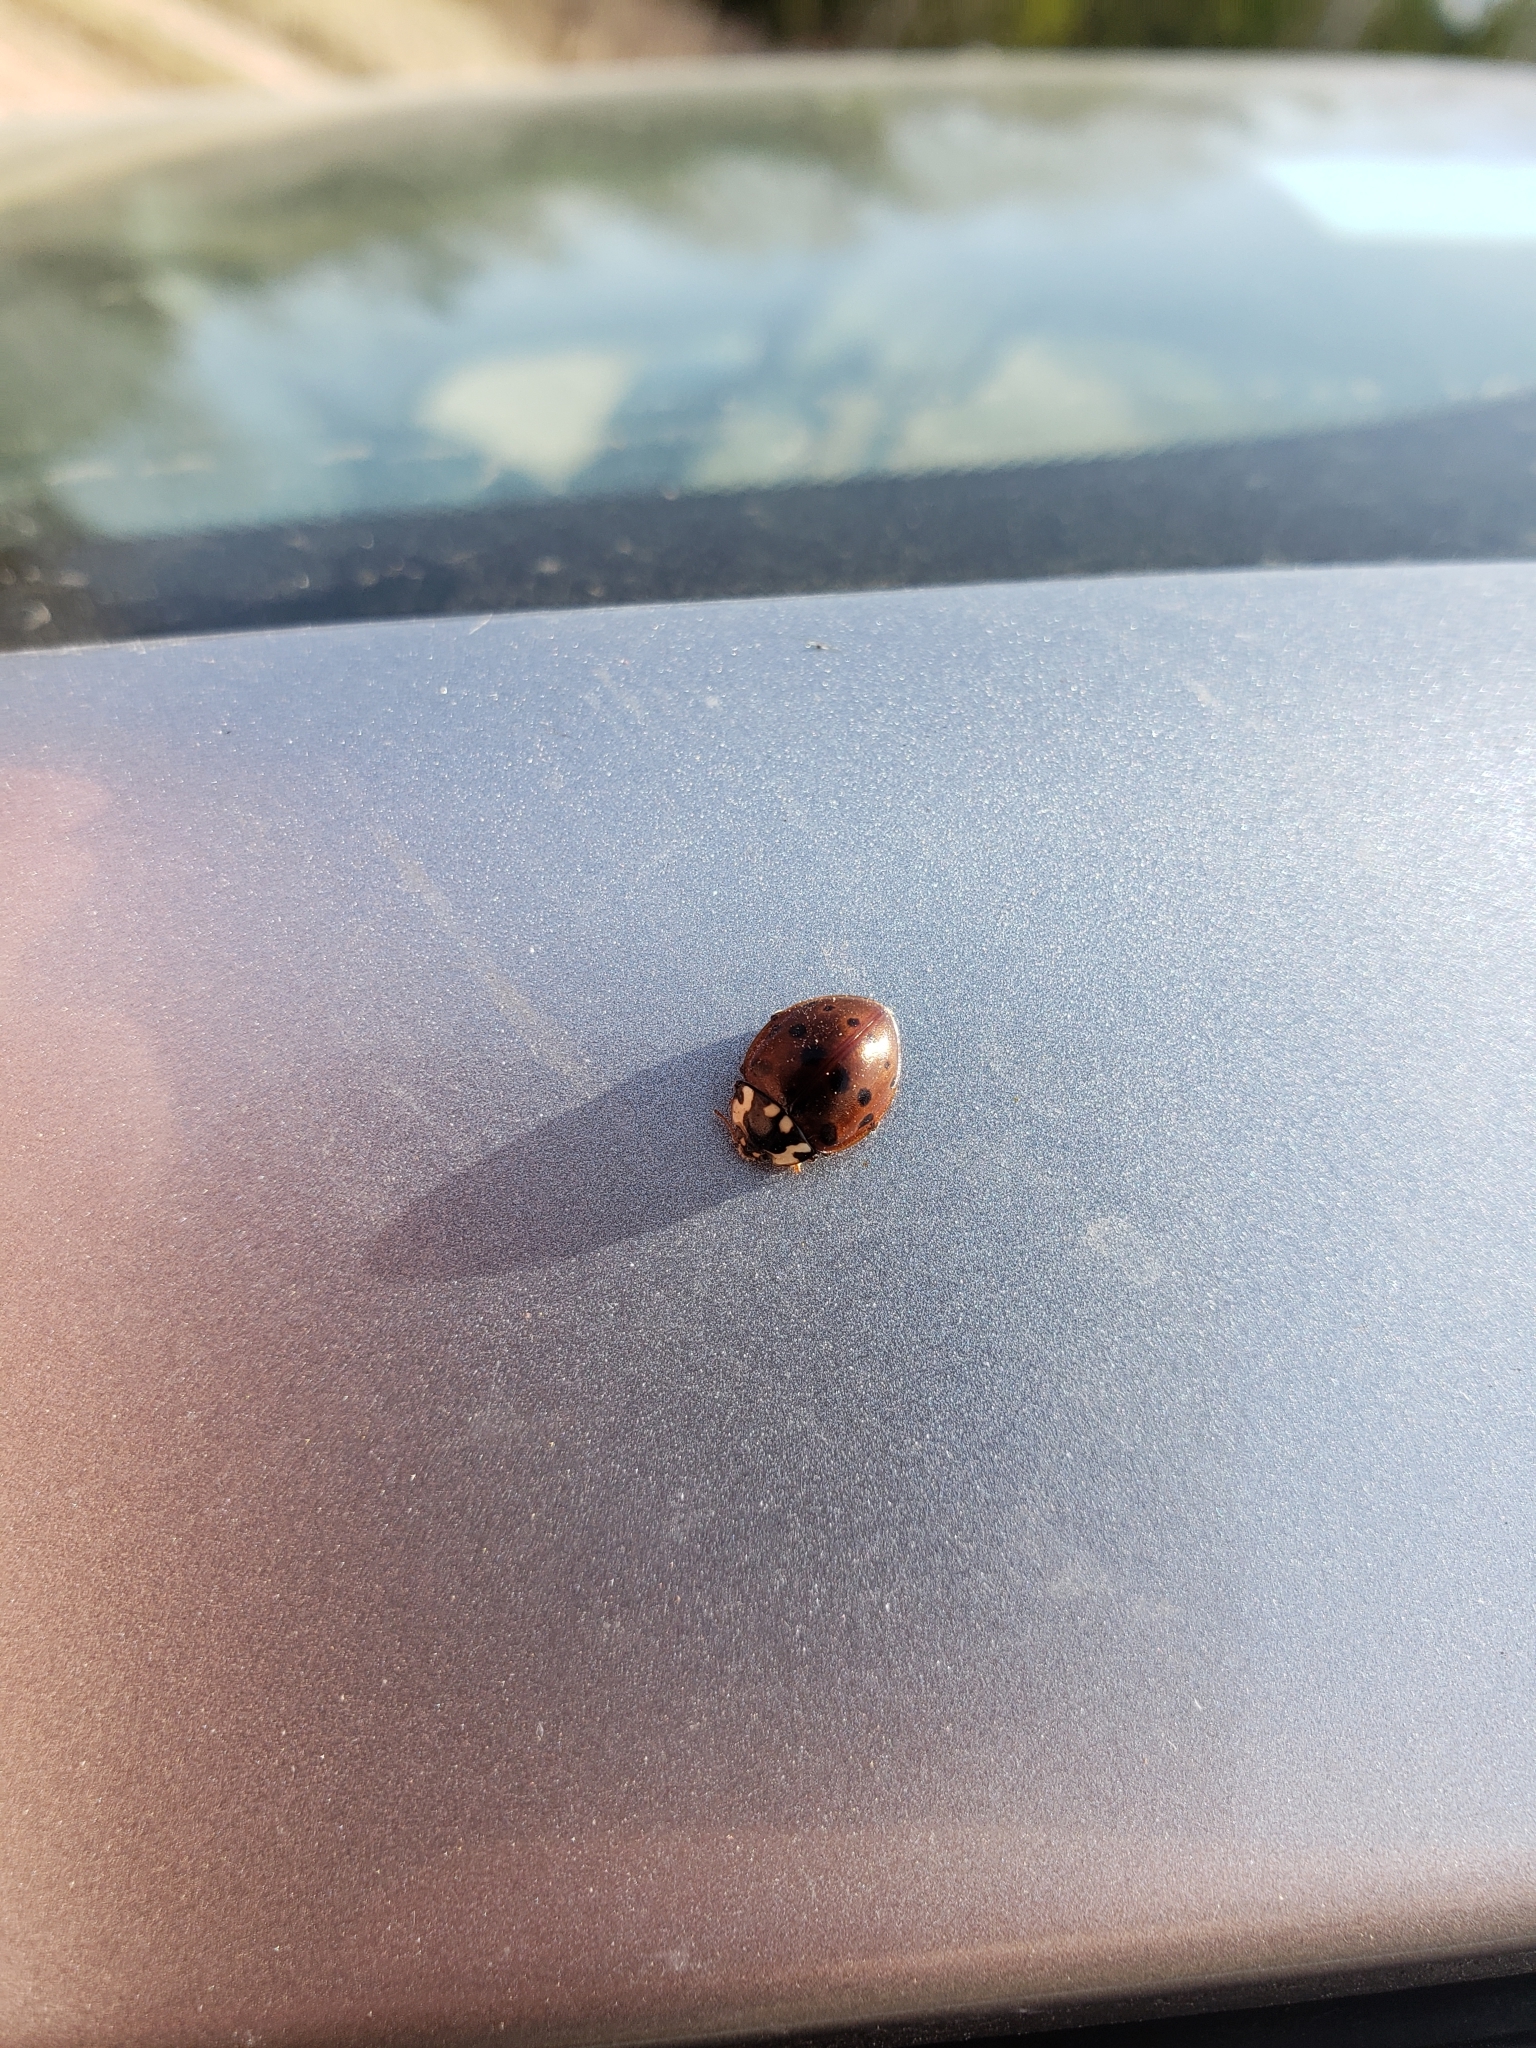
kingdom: Animalia
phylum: Arthropoda
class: Insecta
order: Coleoptera
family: Coccinellidae
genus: Anatis
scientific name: Anatis labiculata
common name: Fifteen-spotted lady beetle
